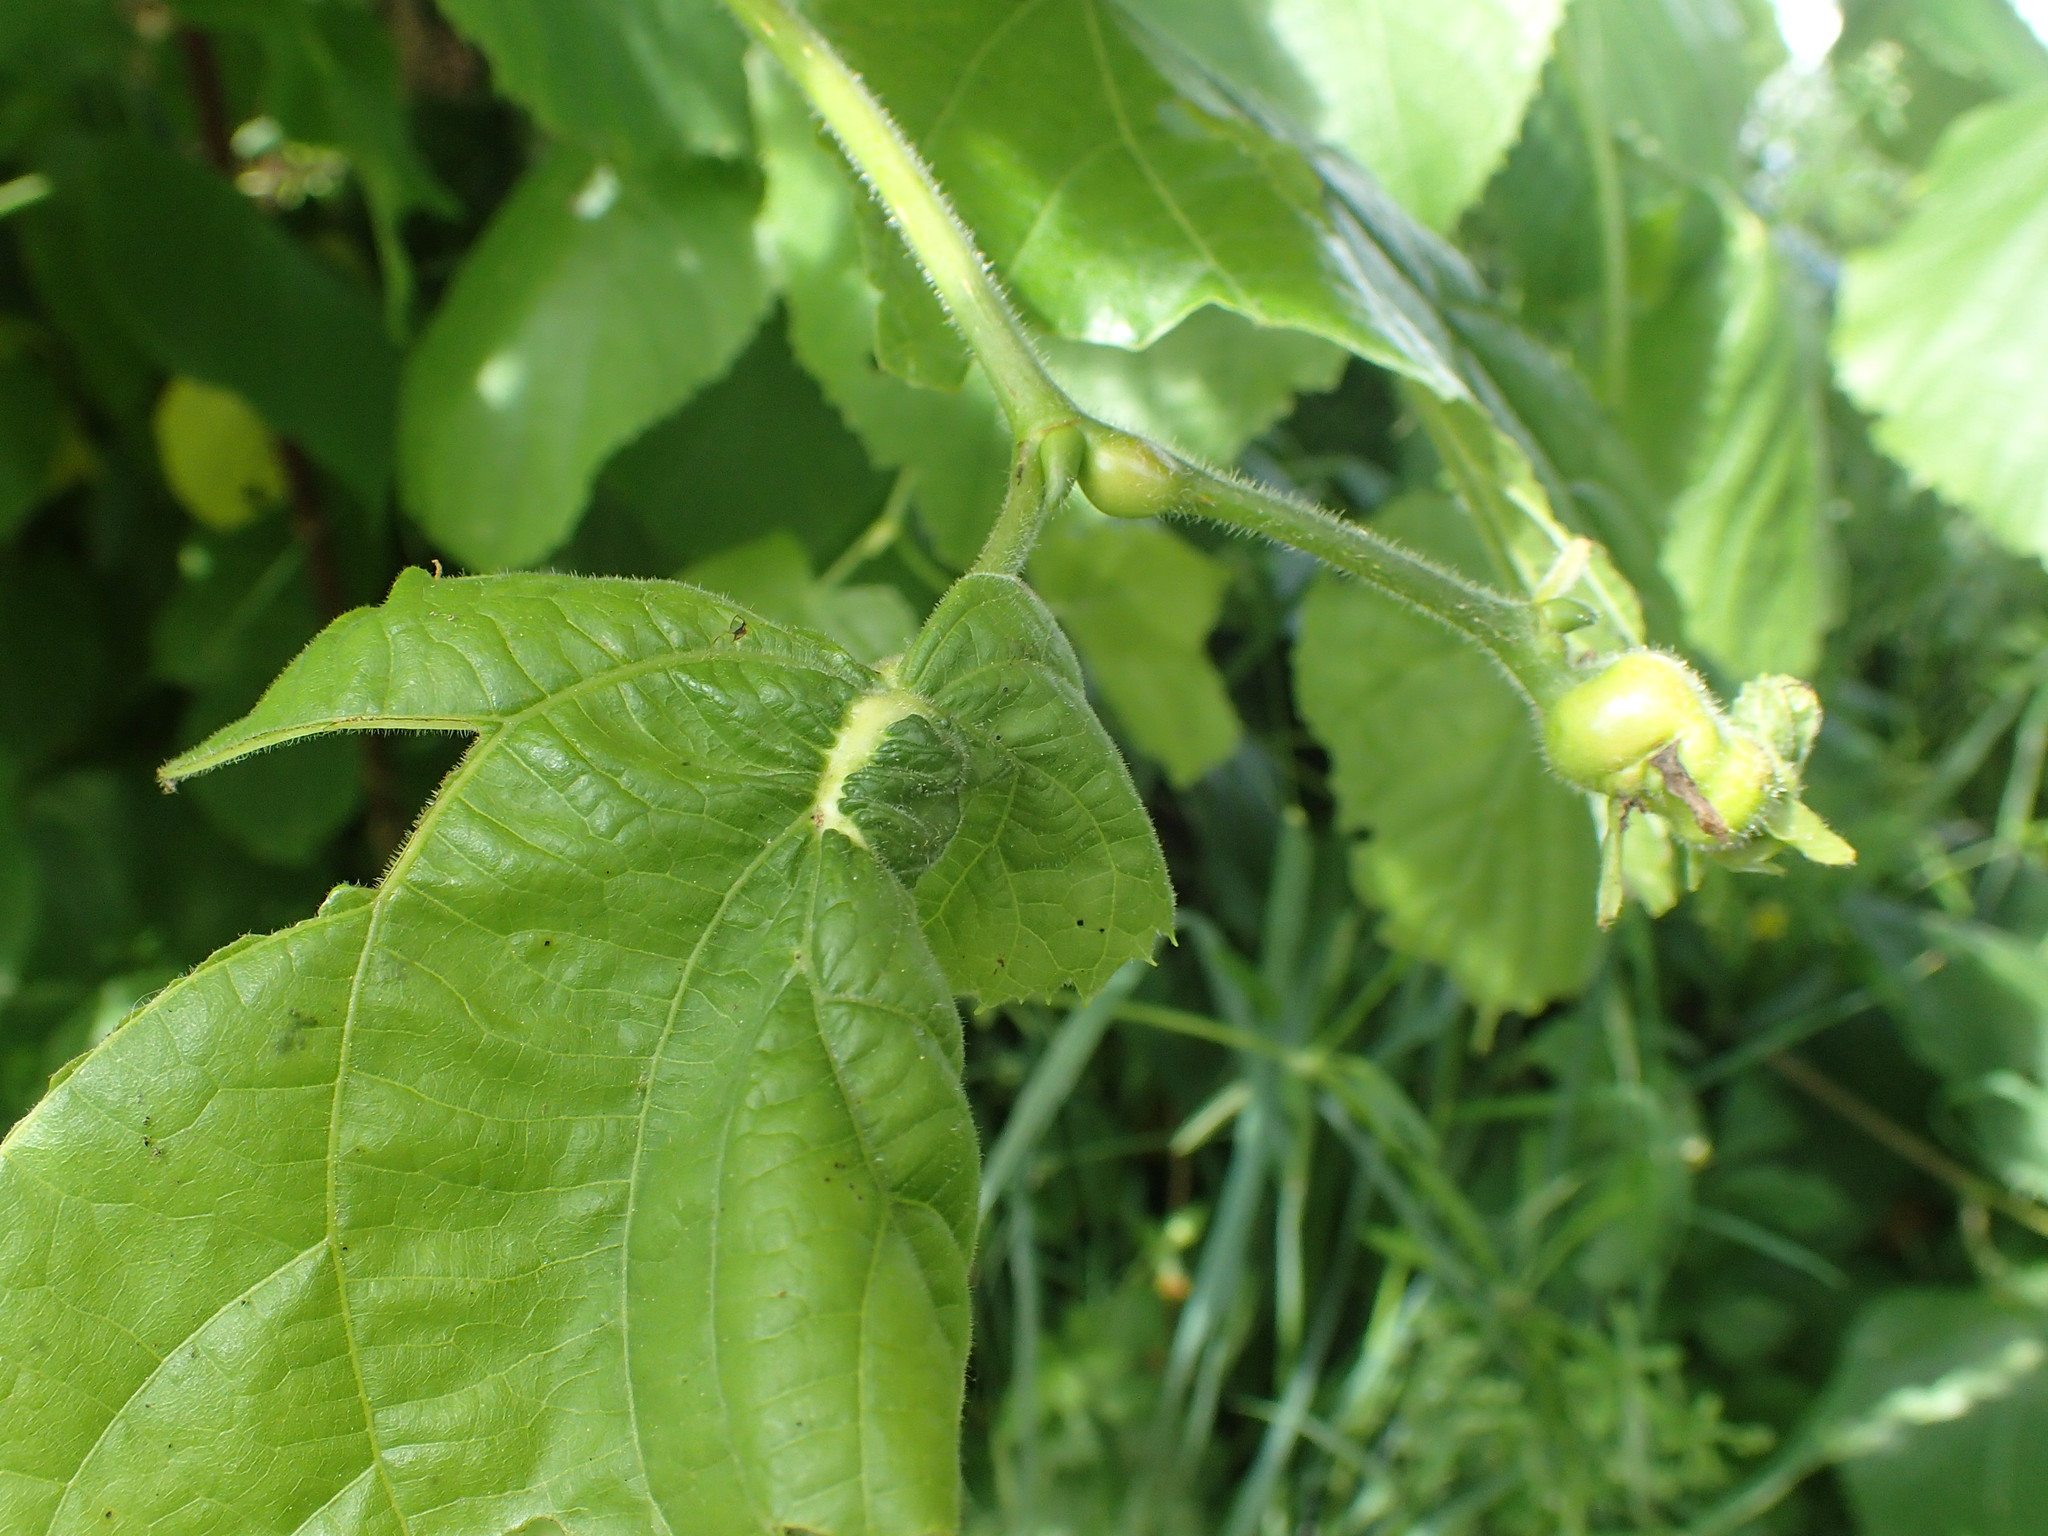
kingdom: Animalia
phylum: Arthropoda
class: Insecta
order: Diptera
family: Cecidomyiidae
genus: Contarinia
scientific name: Contarinia tiliarum
